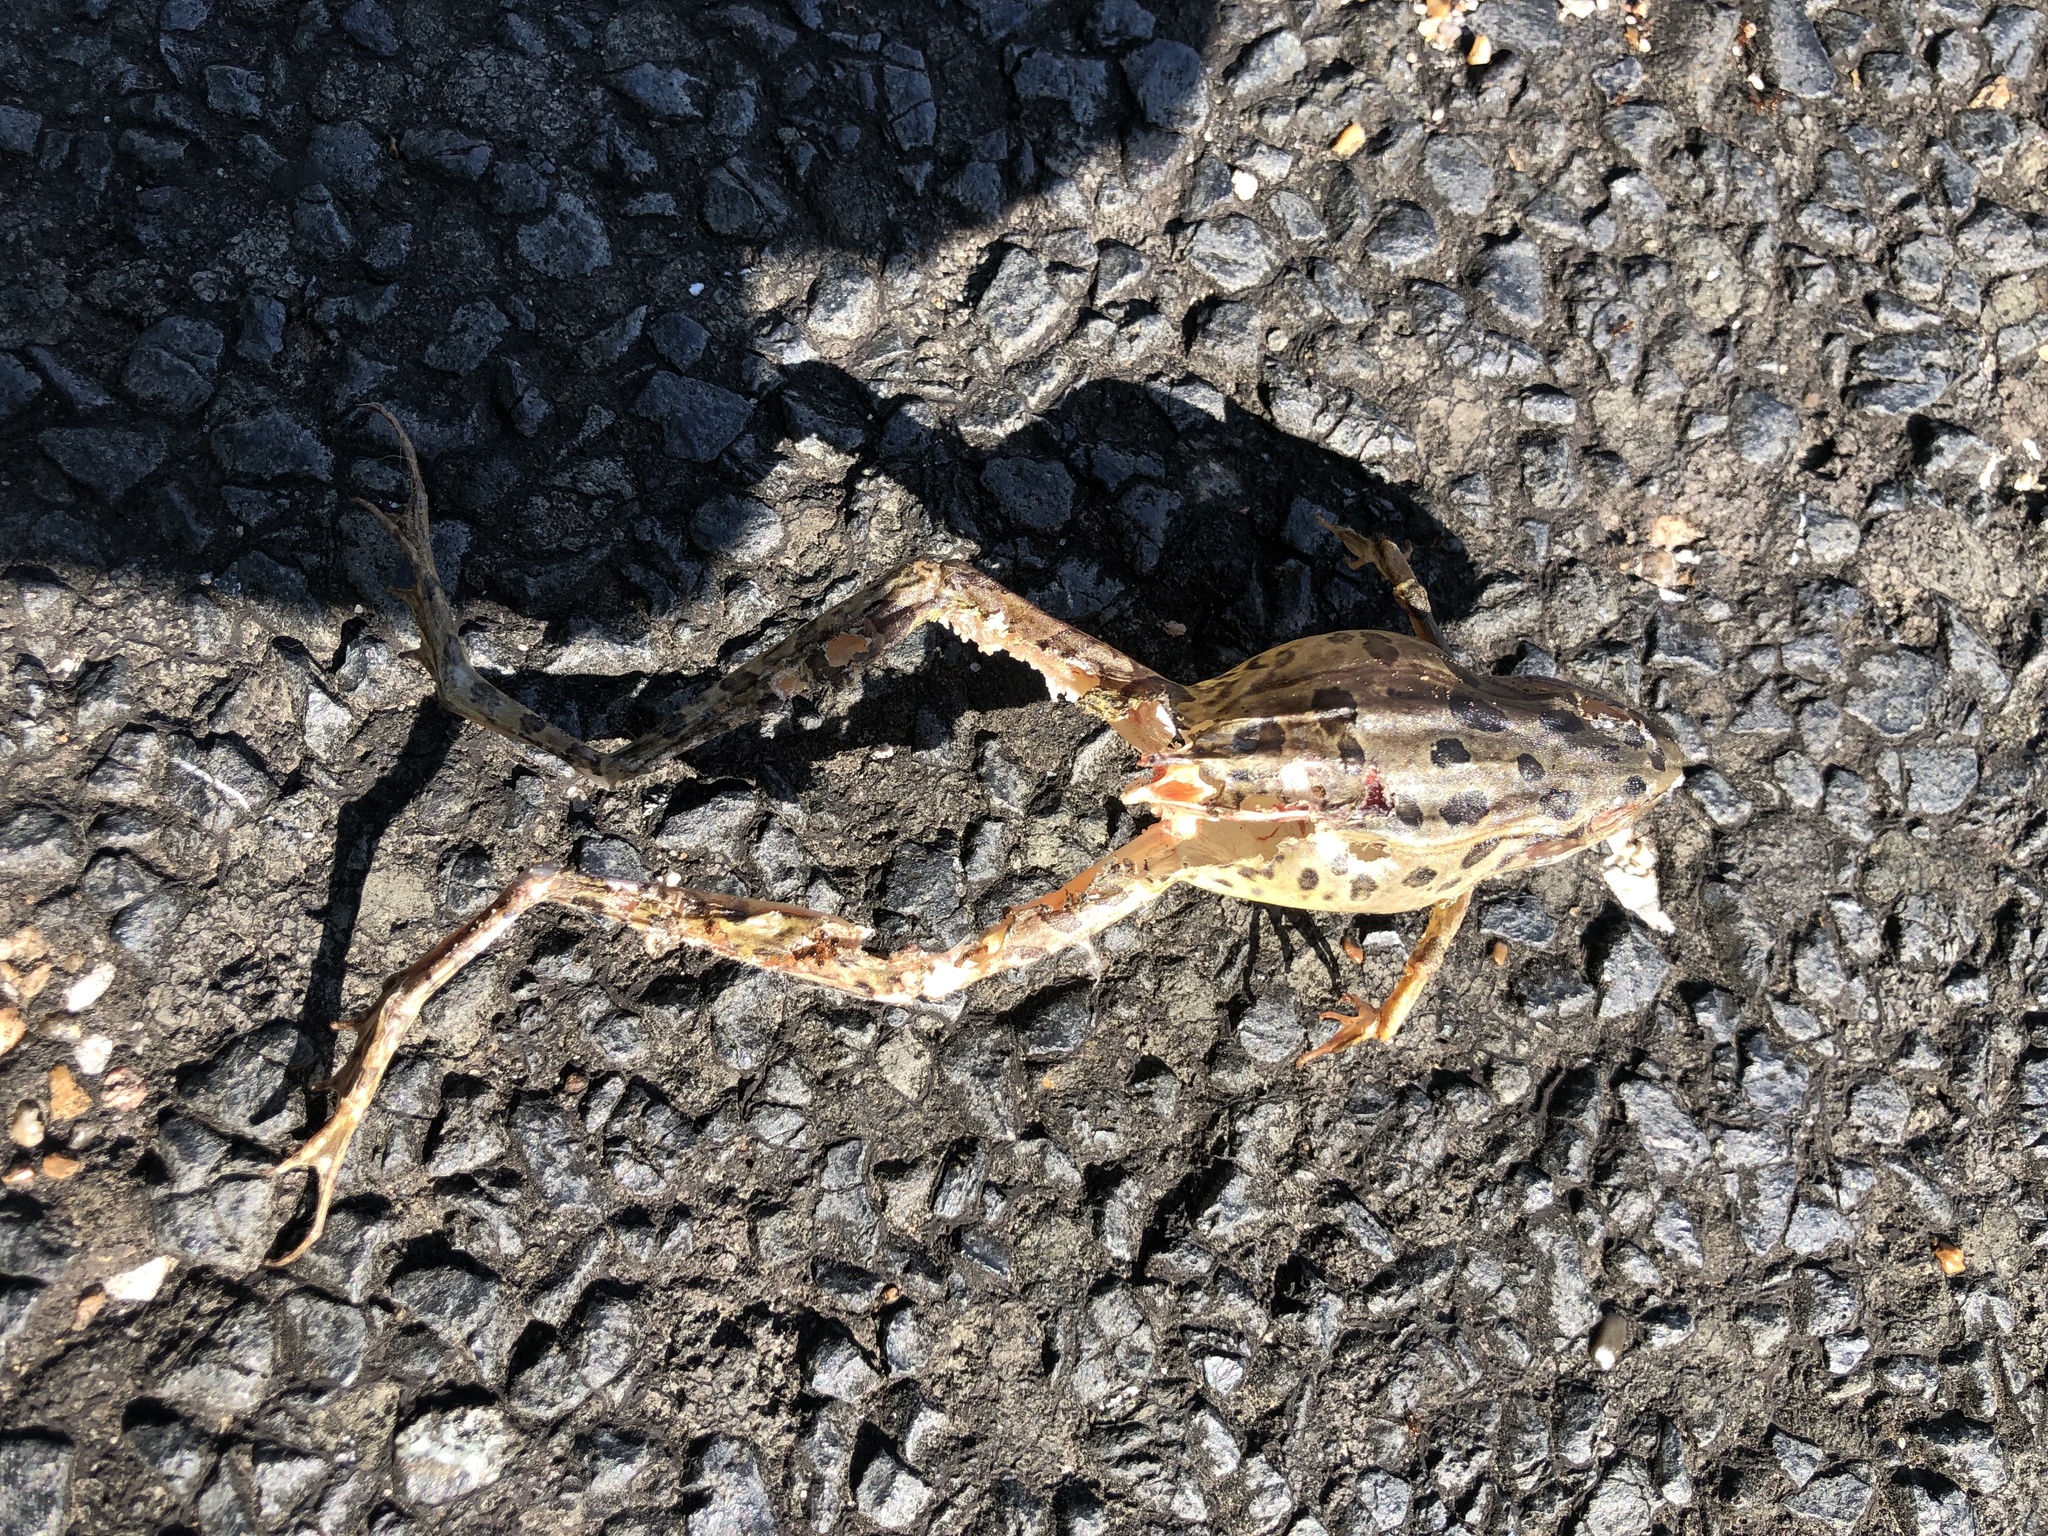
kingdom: Animalia
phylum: Chordata
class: Amphibia
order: Anura
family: Ranidae
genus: Lithobates
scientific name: Lithobates sphenocephalus
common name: Southern leopard frog
